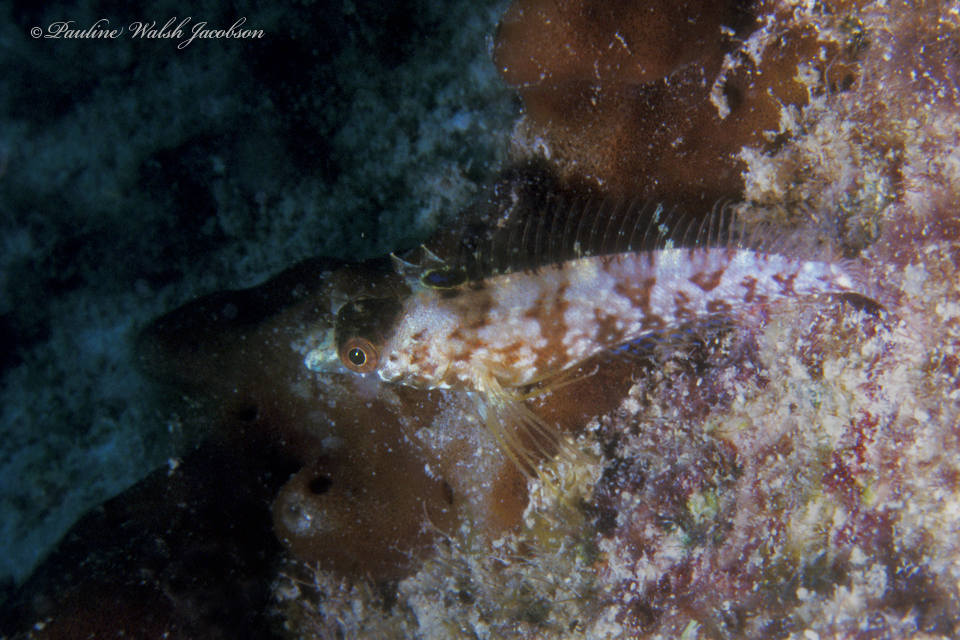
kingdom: Animalia
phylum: Chordata
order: Perciformes
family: Labrisomidae
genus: Malacoctenus
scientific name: Malacoctenus boehlkei
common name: Diamond blenny
